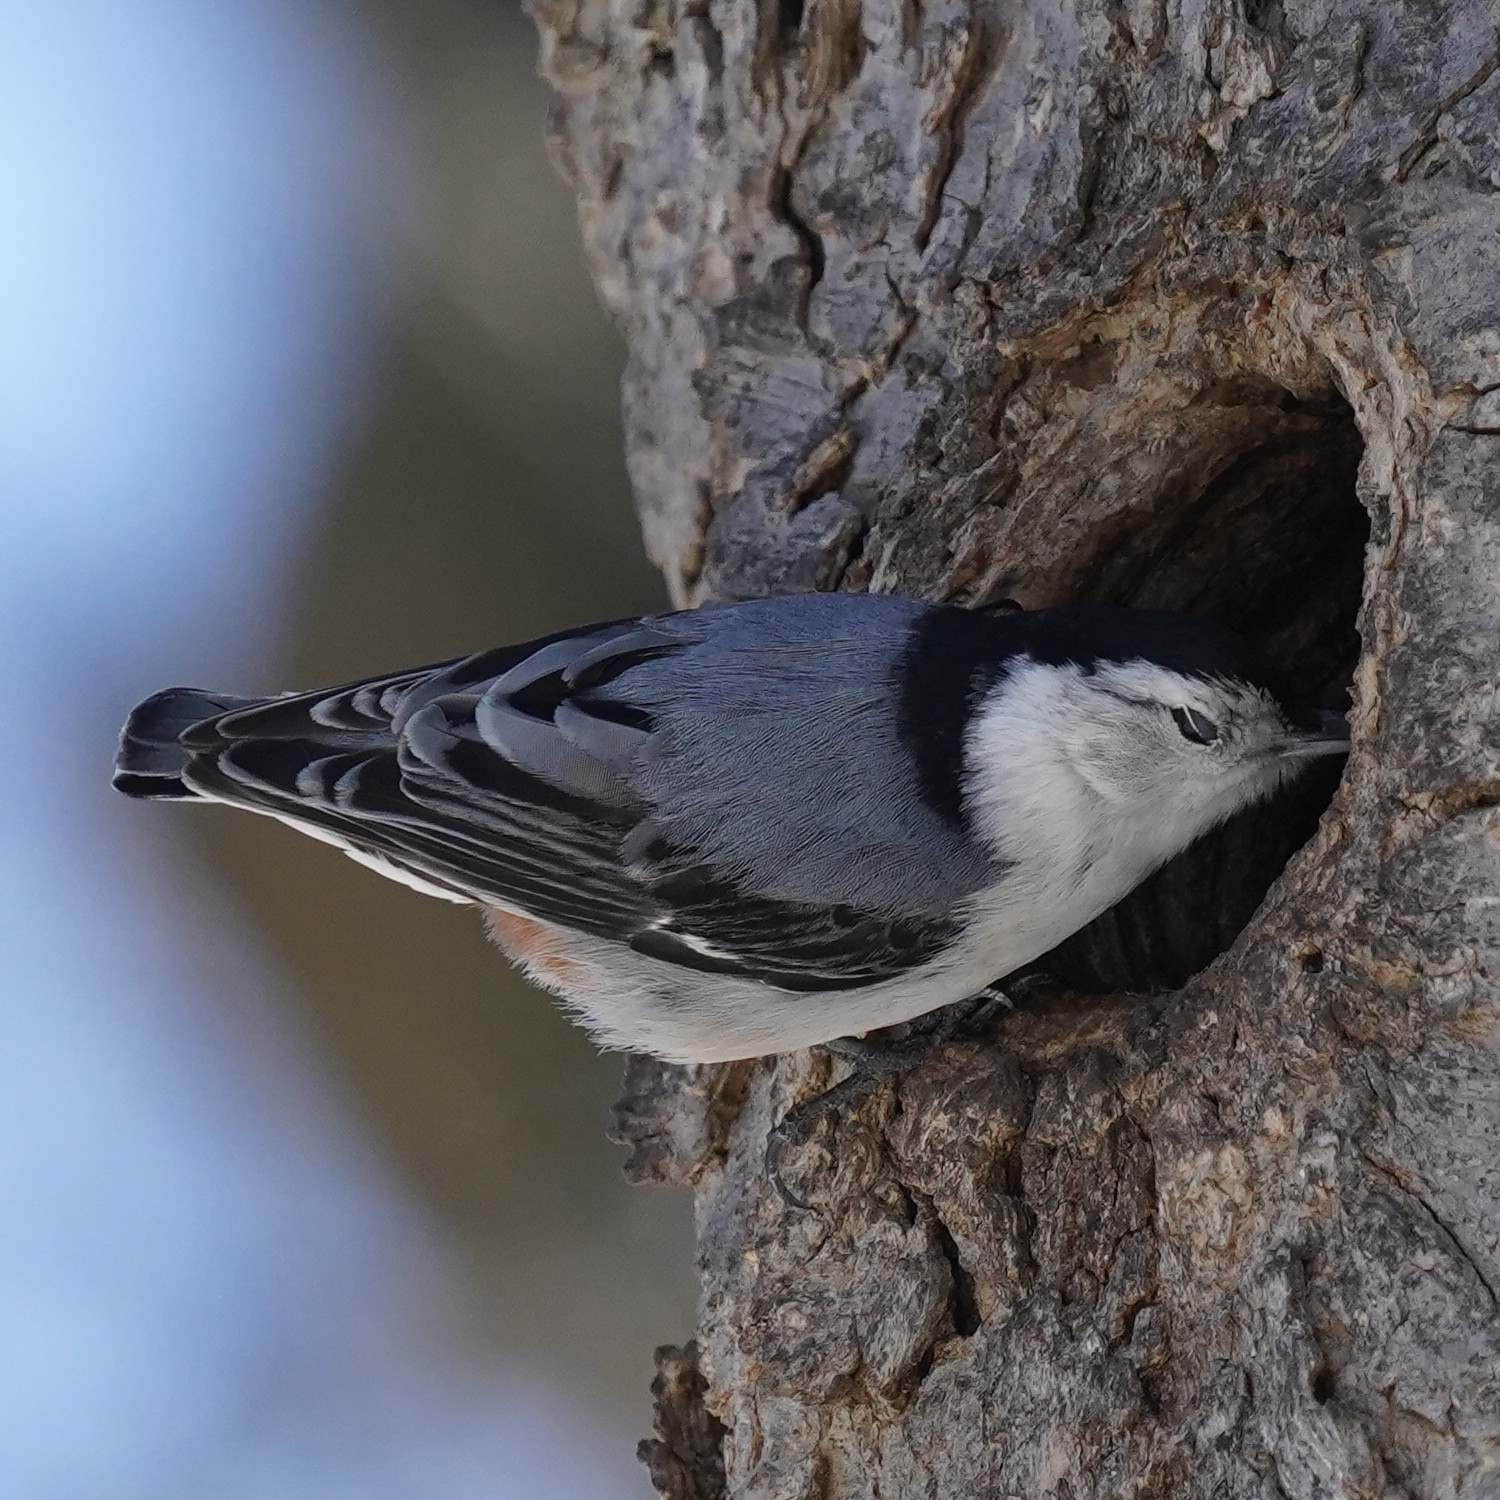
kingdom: Animalia
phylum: Chordata
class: Aves
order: Passeriformes
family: Sittidae
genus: Sitta
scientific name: Sitta carolinensis
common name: White-breasted nuthatch
